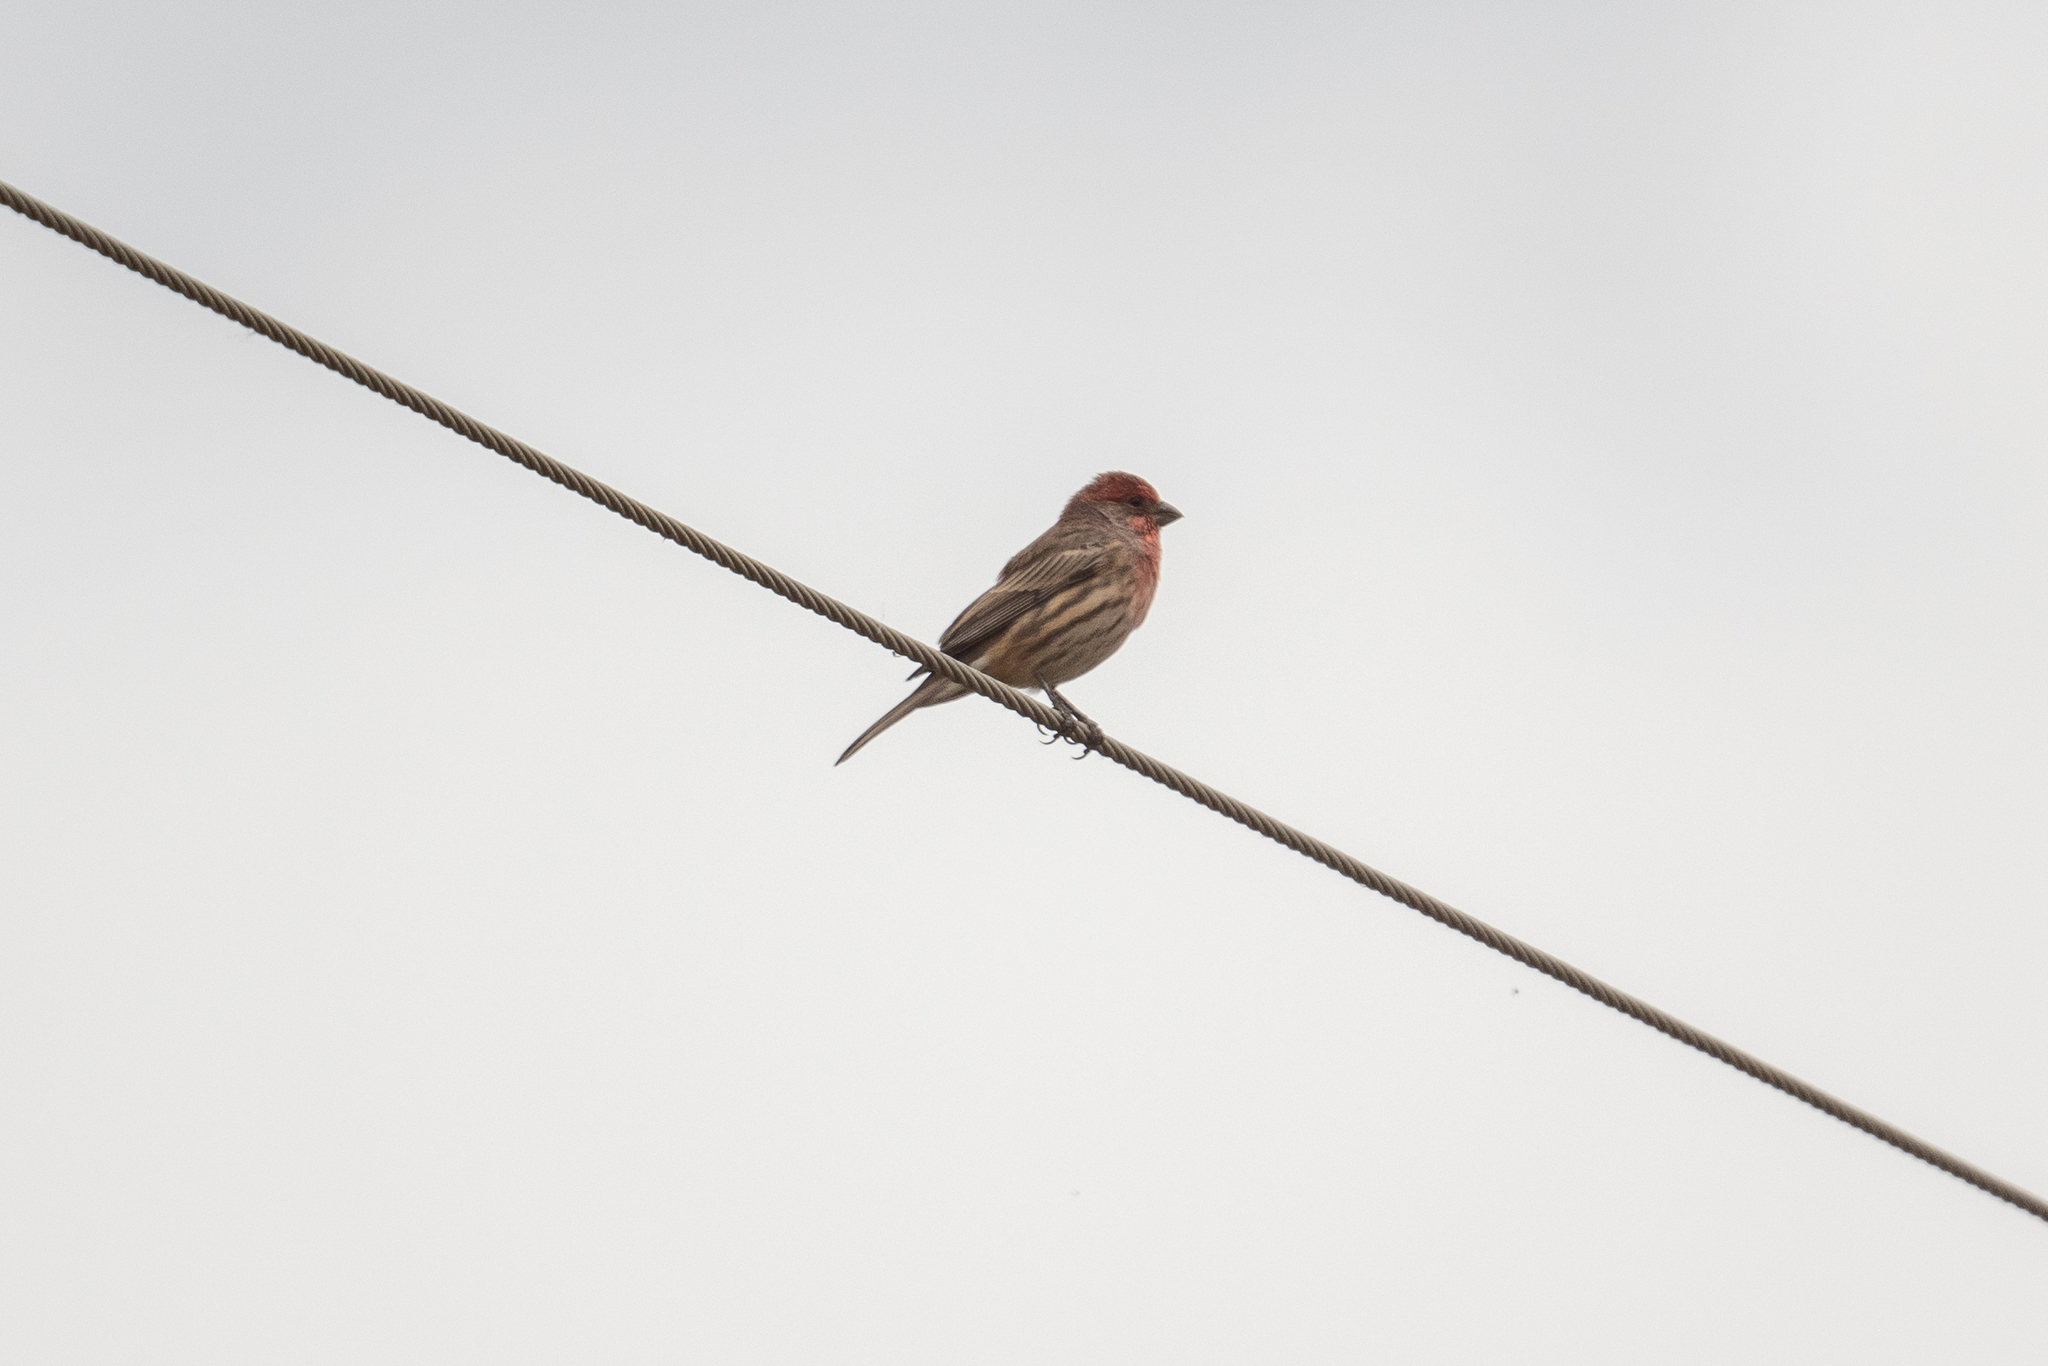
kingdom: Animalia
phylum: Chordata
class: Aves
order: Passeriformes
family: Fringillidae
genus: Haemorhous
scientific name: Haemorhous mexicanus
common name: House finch
